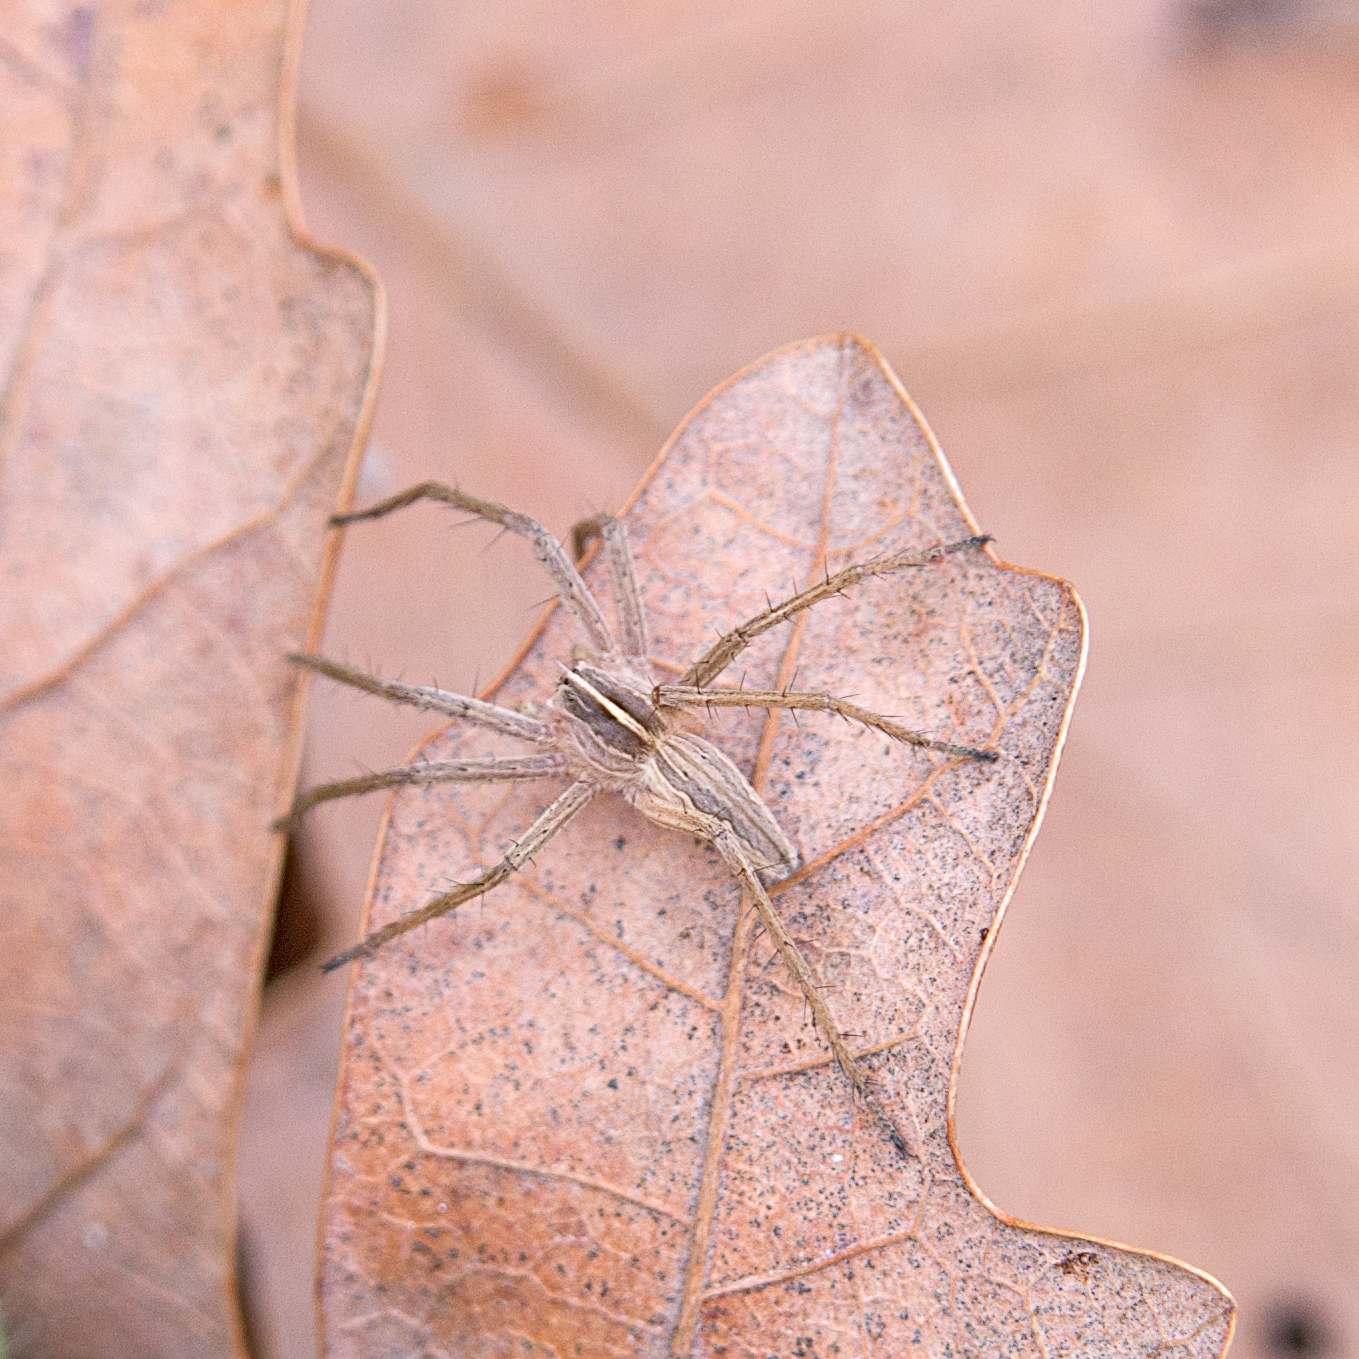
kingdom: Animalia
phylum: Arthropoda
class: Arachnida
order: Araneae
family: Pisauridae
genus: Pisaura
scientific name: Pisaura mirabilis
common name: Tent spider
